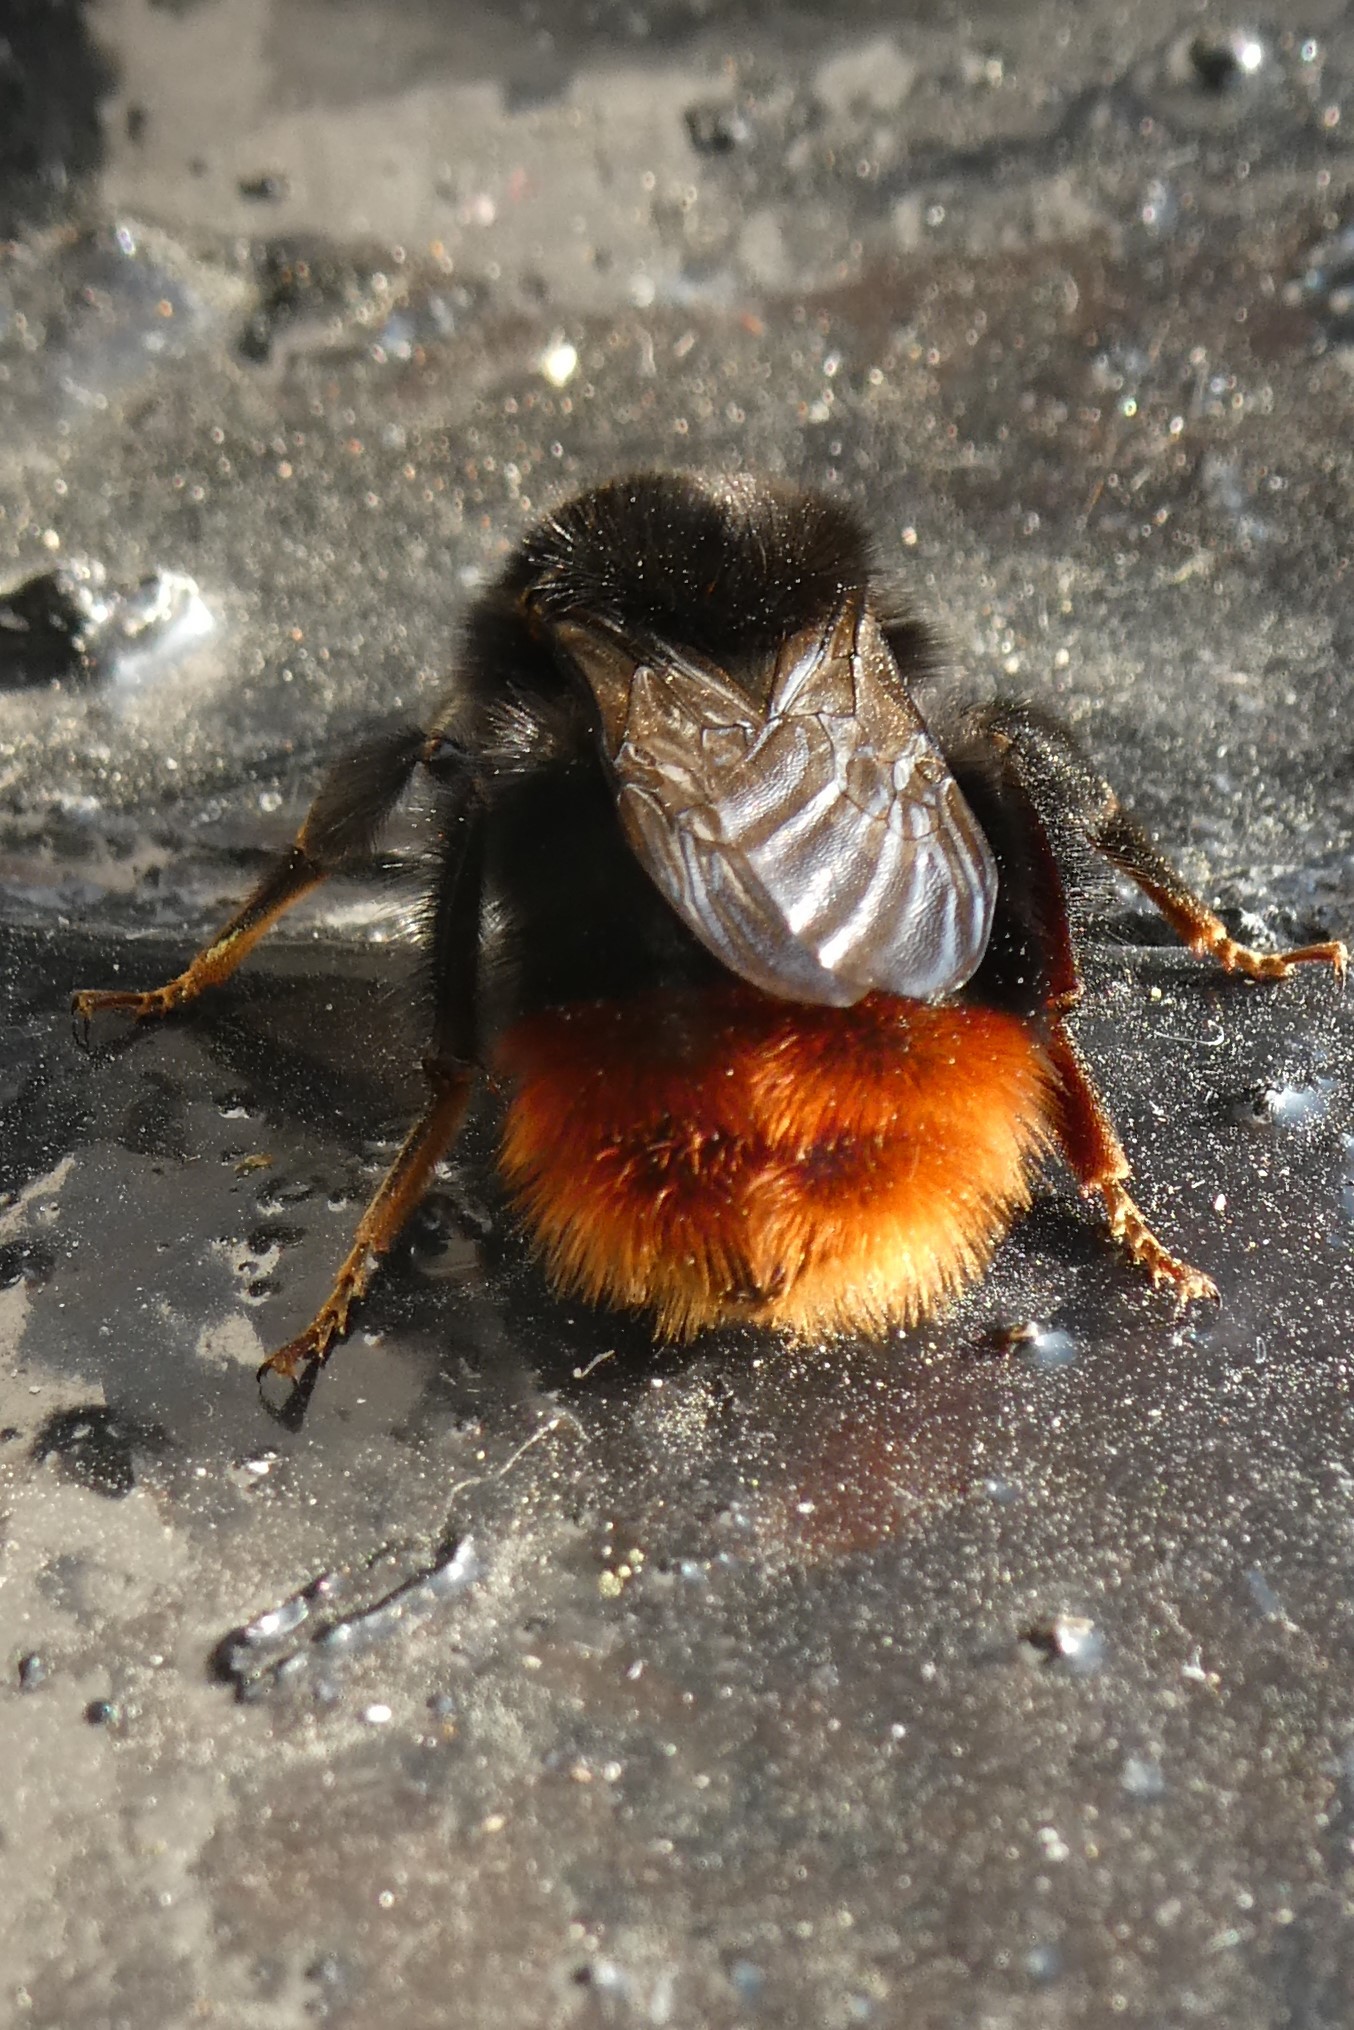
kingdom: Animalia
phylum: Arthropoda
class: Insecta
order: Hymenoptera
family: Apidae
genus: Bombus
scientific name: Bombus lapidarius
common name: Large red-tailed humble-bee
